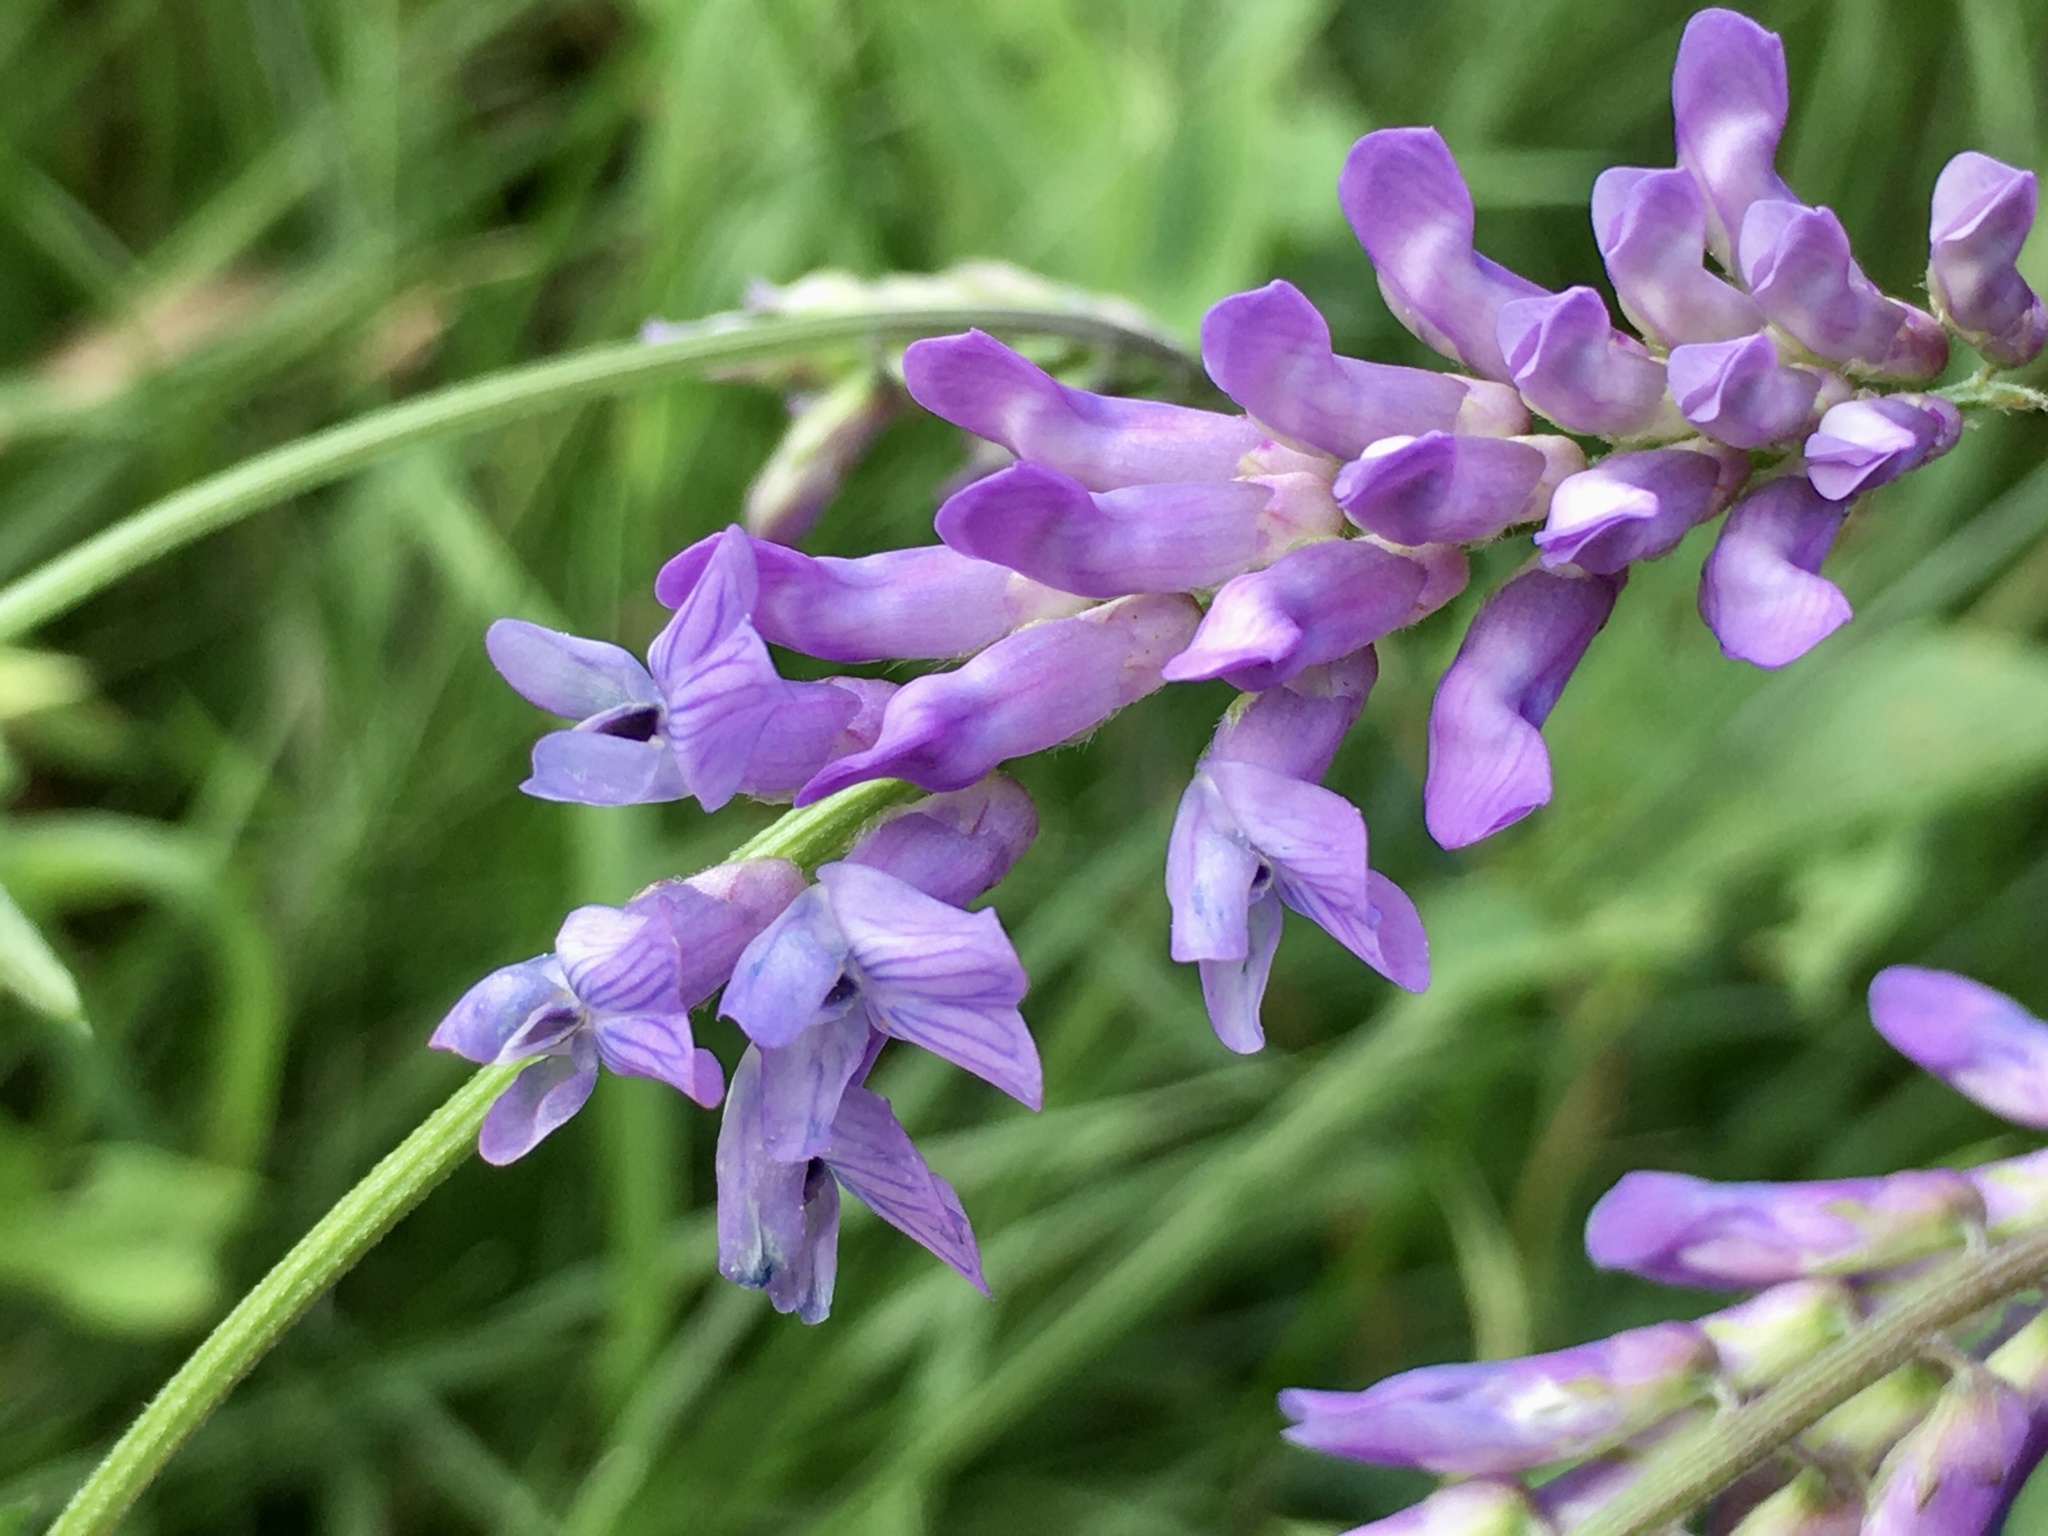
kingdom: Plantae
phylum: Tracheophyta
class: Magnoliopsida
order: Fabales
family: Fabaceae
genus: Vicia
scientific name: Vicia cracca
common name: Bird vetch
